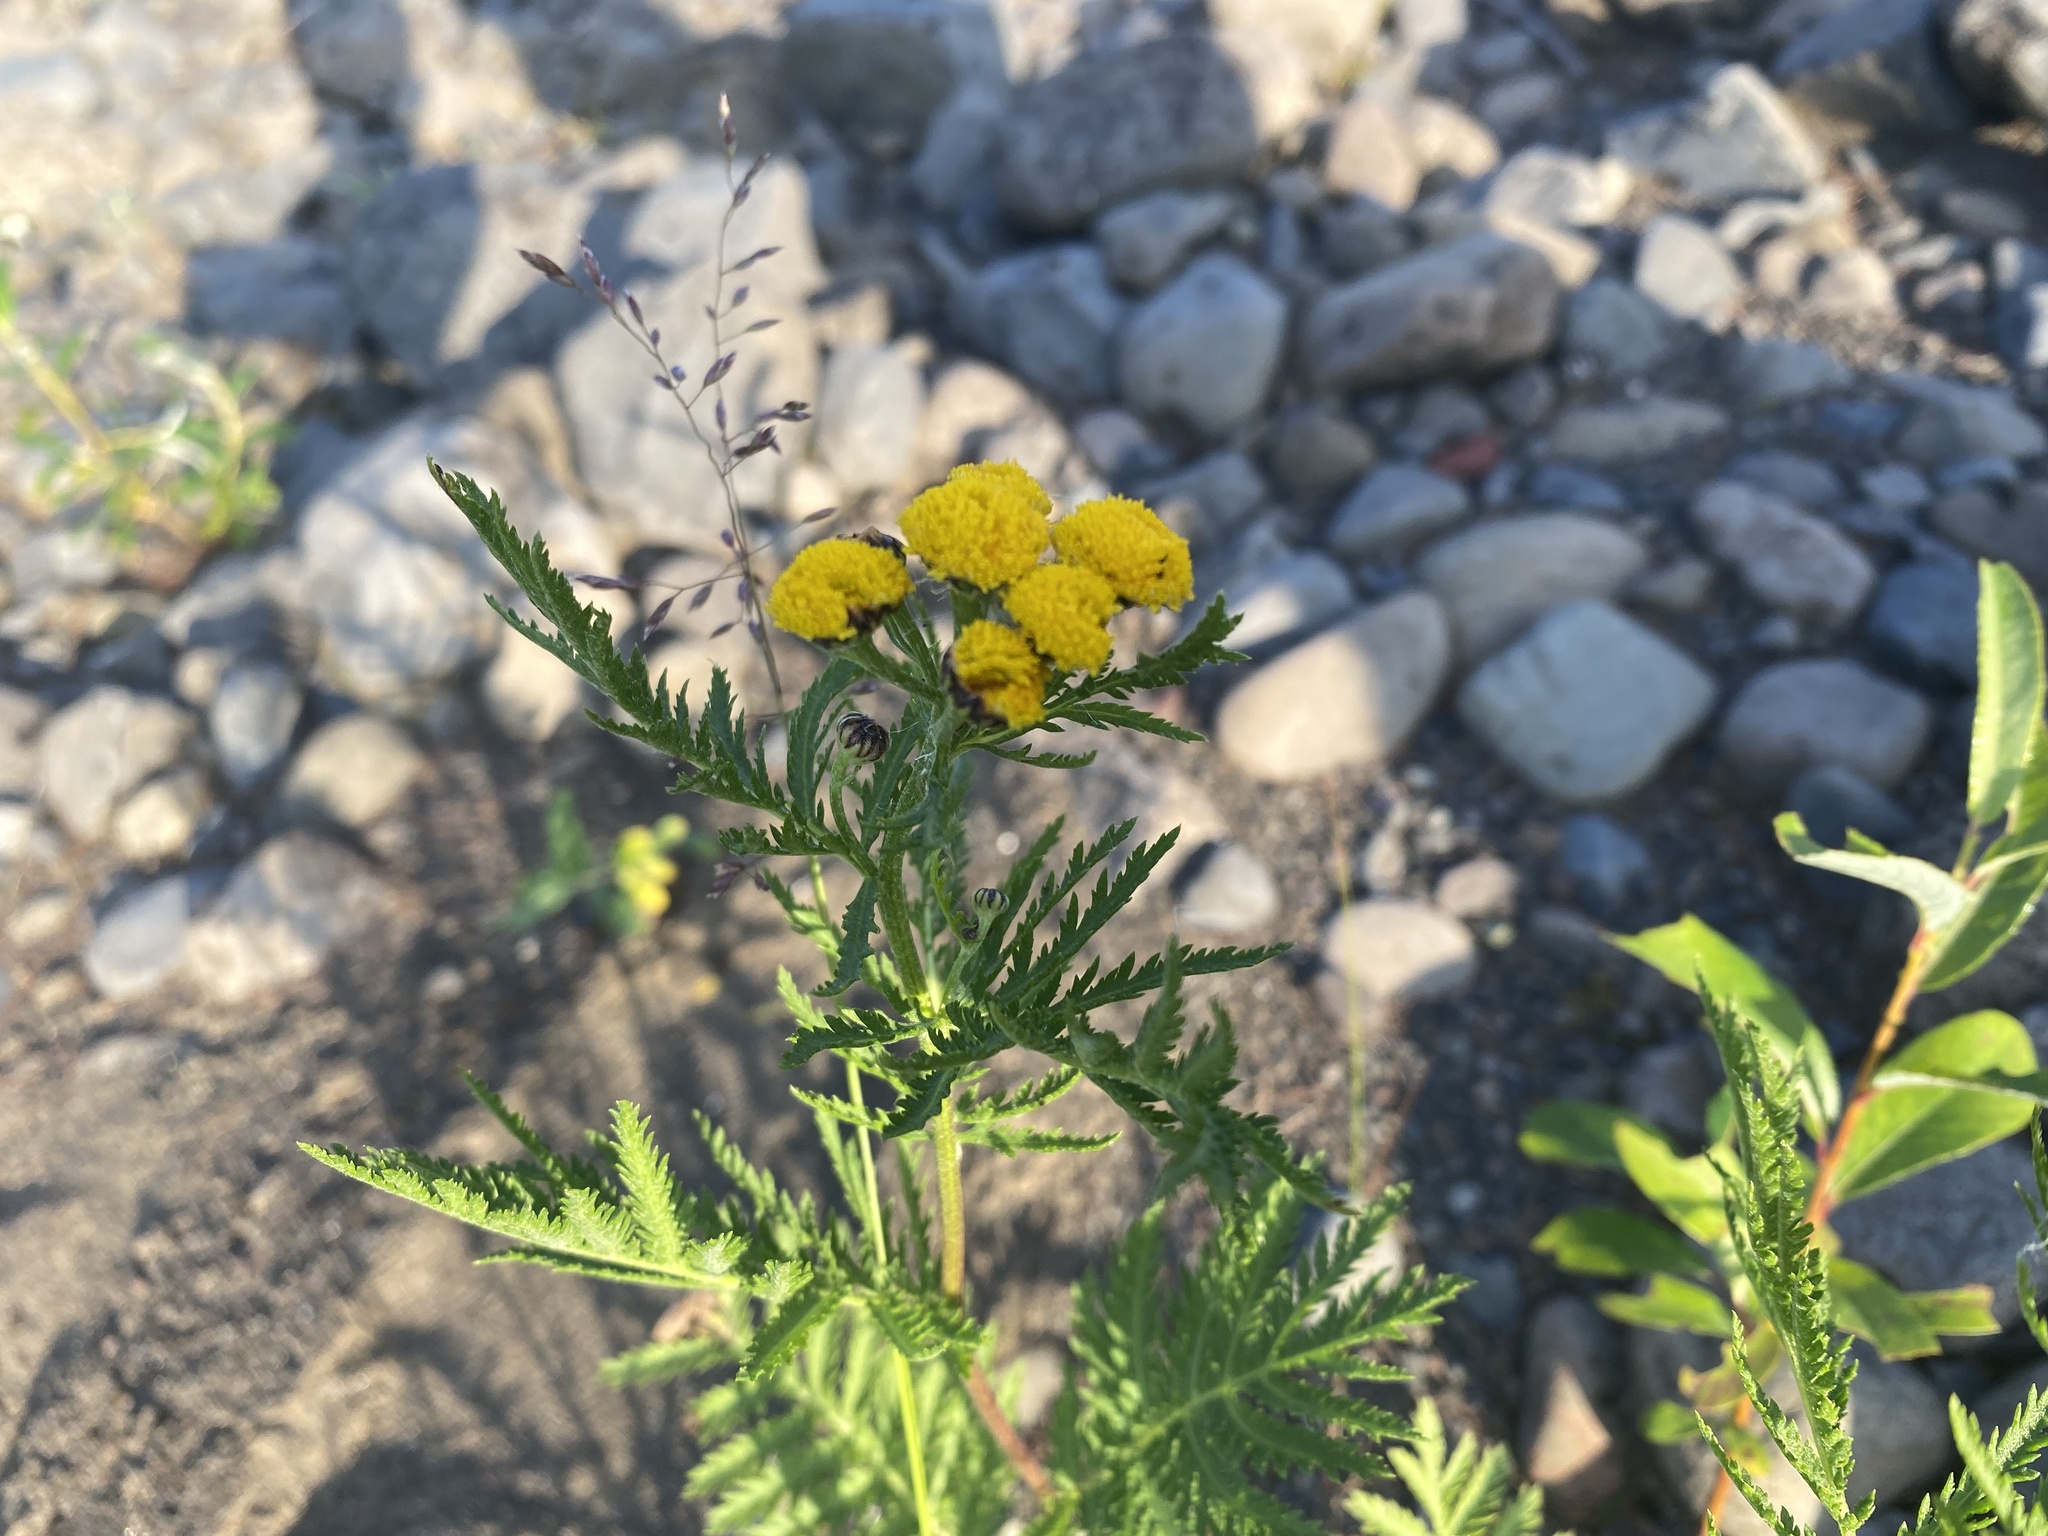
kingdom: Plantae
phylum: Tracheophyta
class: Magnoliopsida
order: Asterales
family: Asteraceae
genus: Tanacetum
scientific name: Tanacetum vulgare
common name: Common tansy
